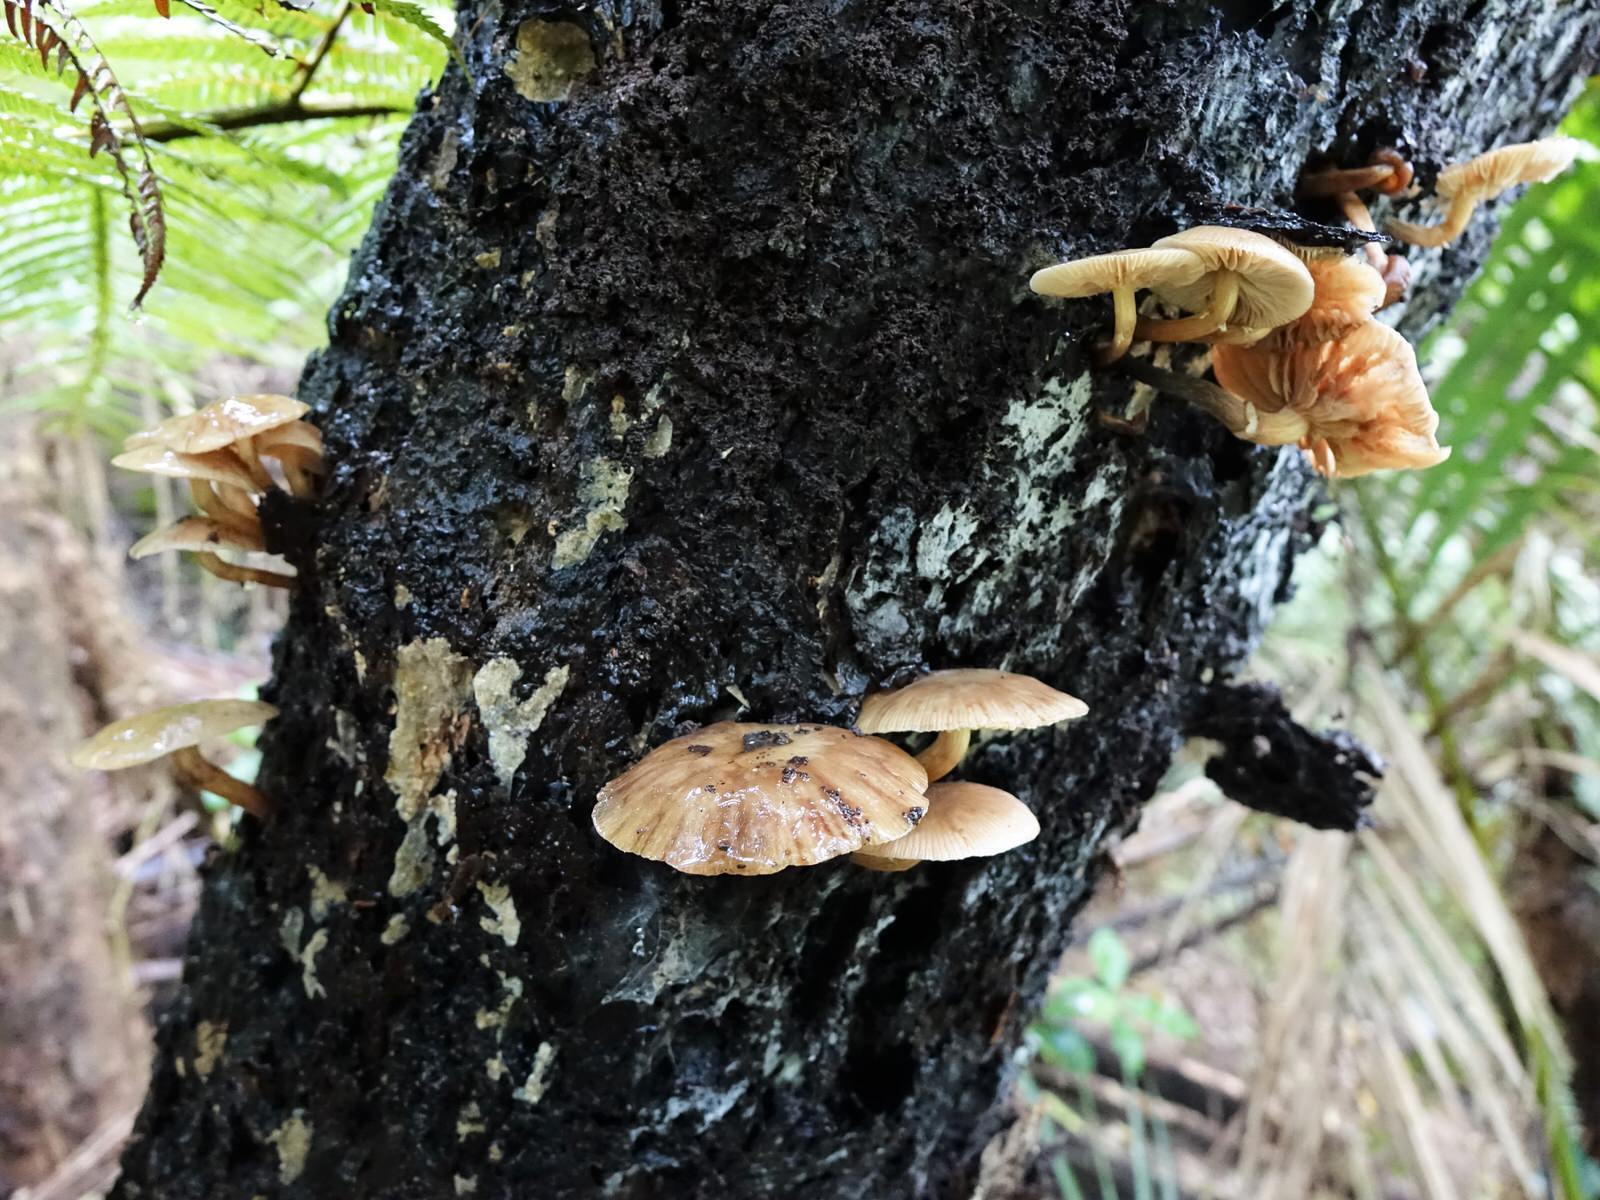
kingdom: Fungi
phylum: Basidiomycota
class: Agaricomycetes
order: Agaricales
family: Physalacriaceae
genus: Armillaria
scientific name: Armillaria novae-zelandiae
